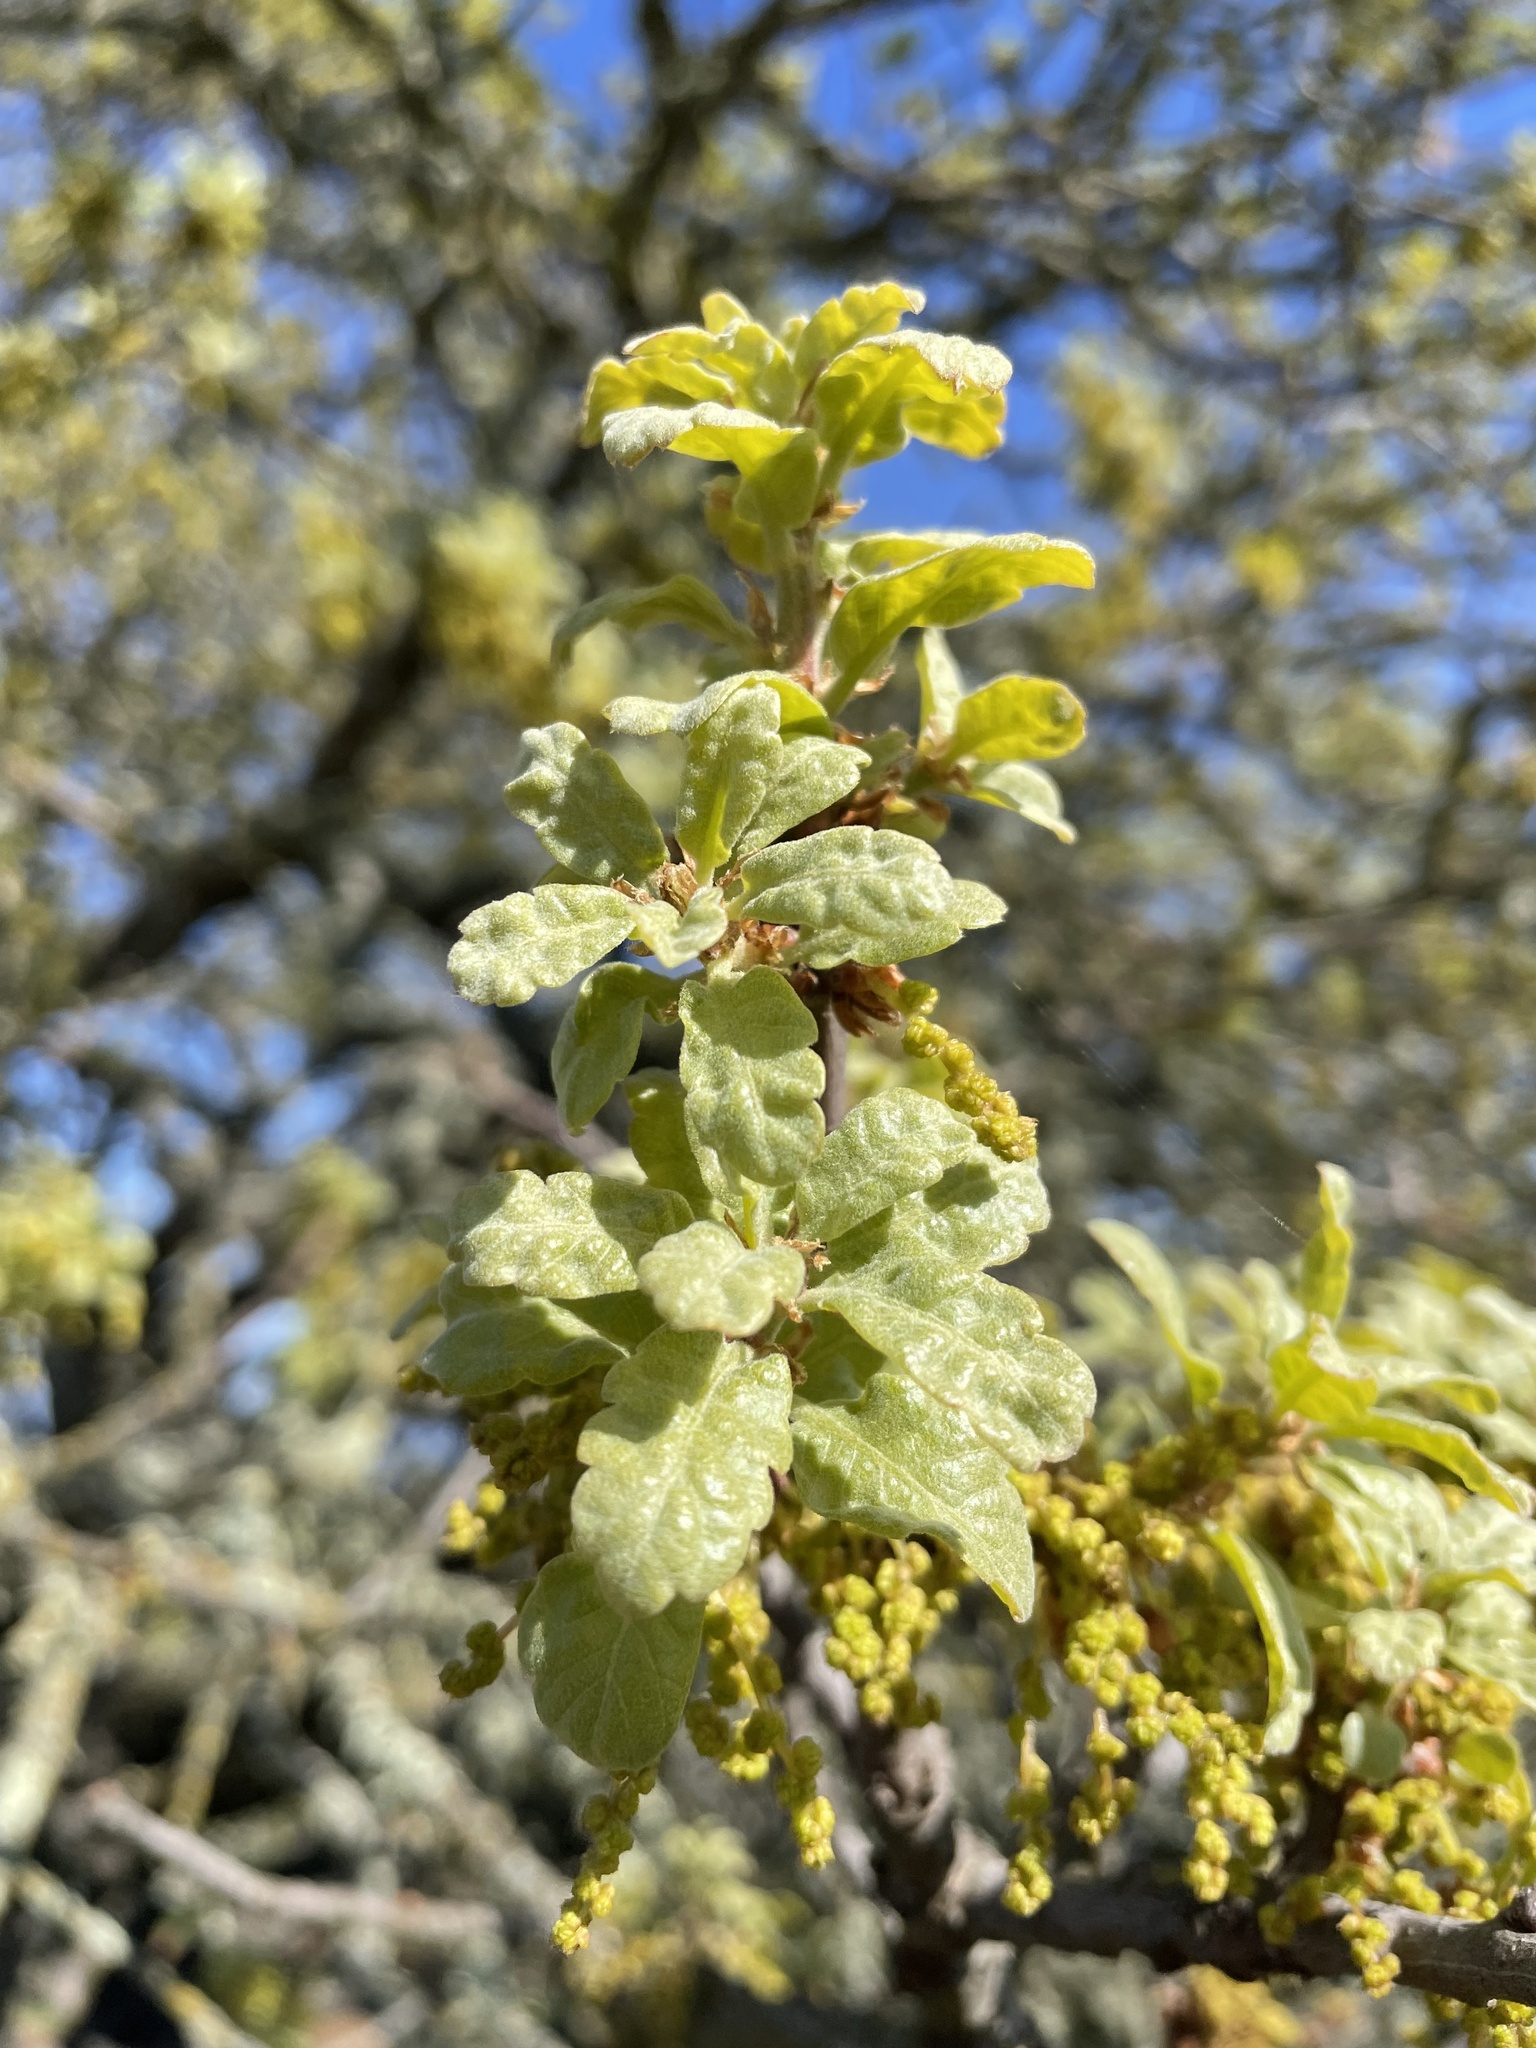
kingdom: Plantae
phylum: Tracheophyta
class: Magnoliopsida
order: Fagales
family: Fagaceae
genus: Quercus
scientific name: Quercus douglasii
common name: Blue oak
